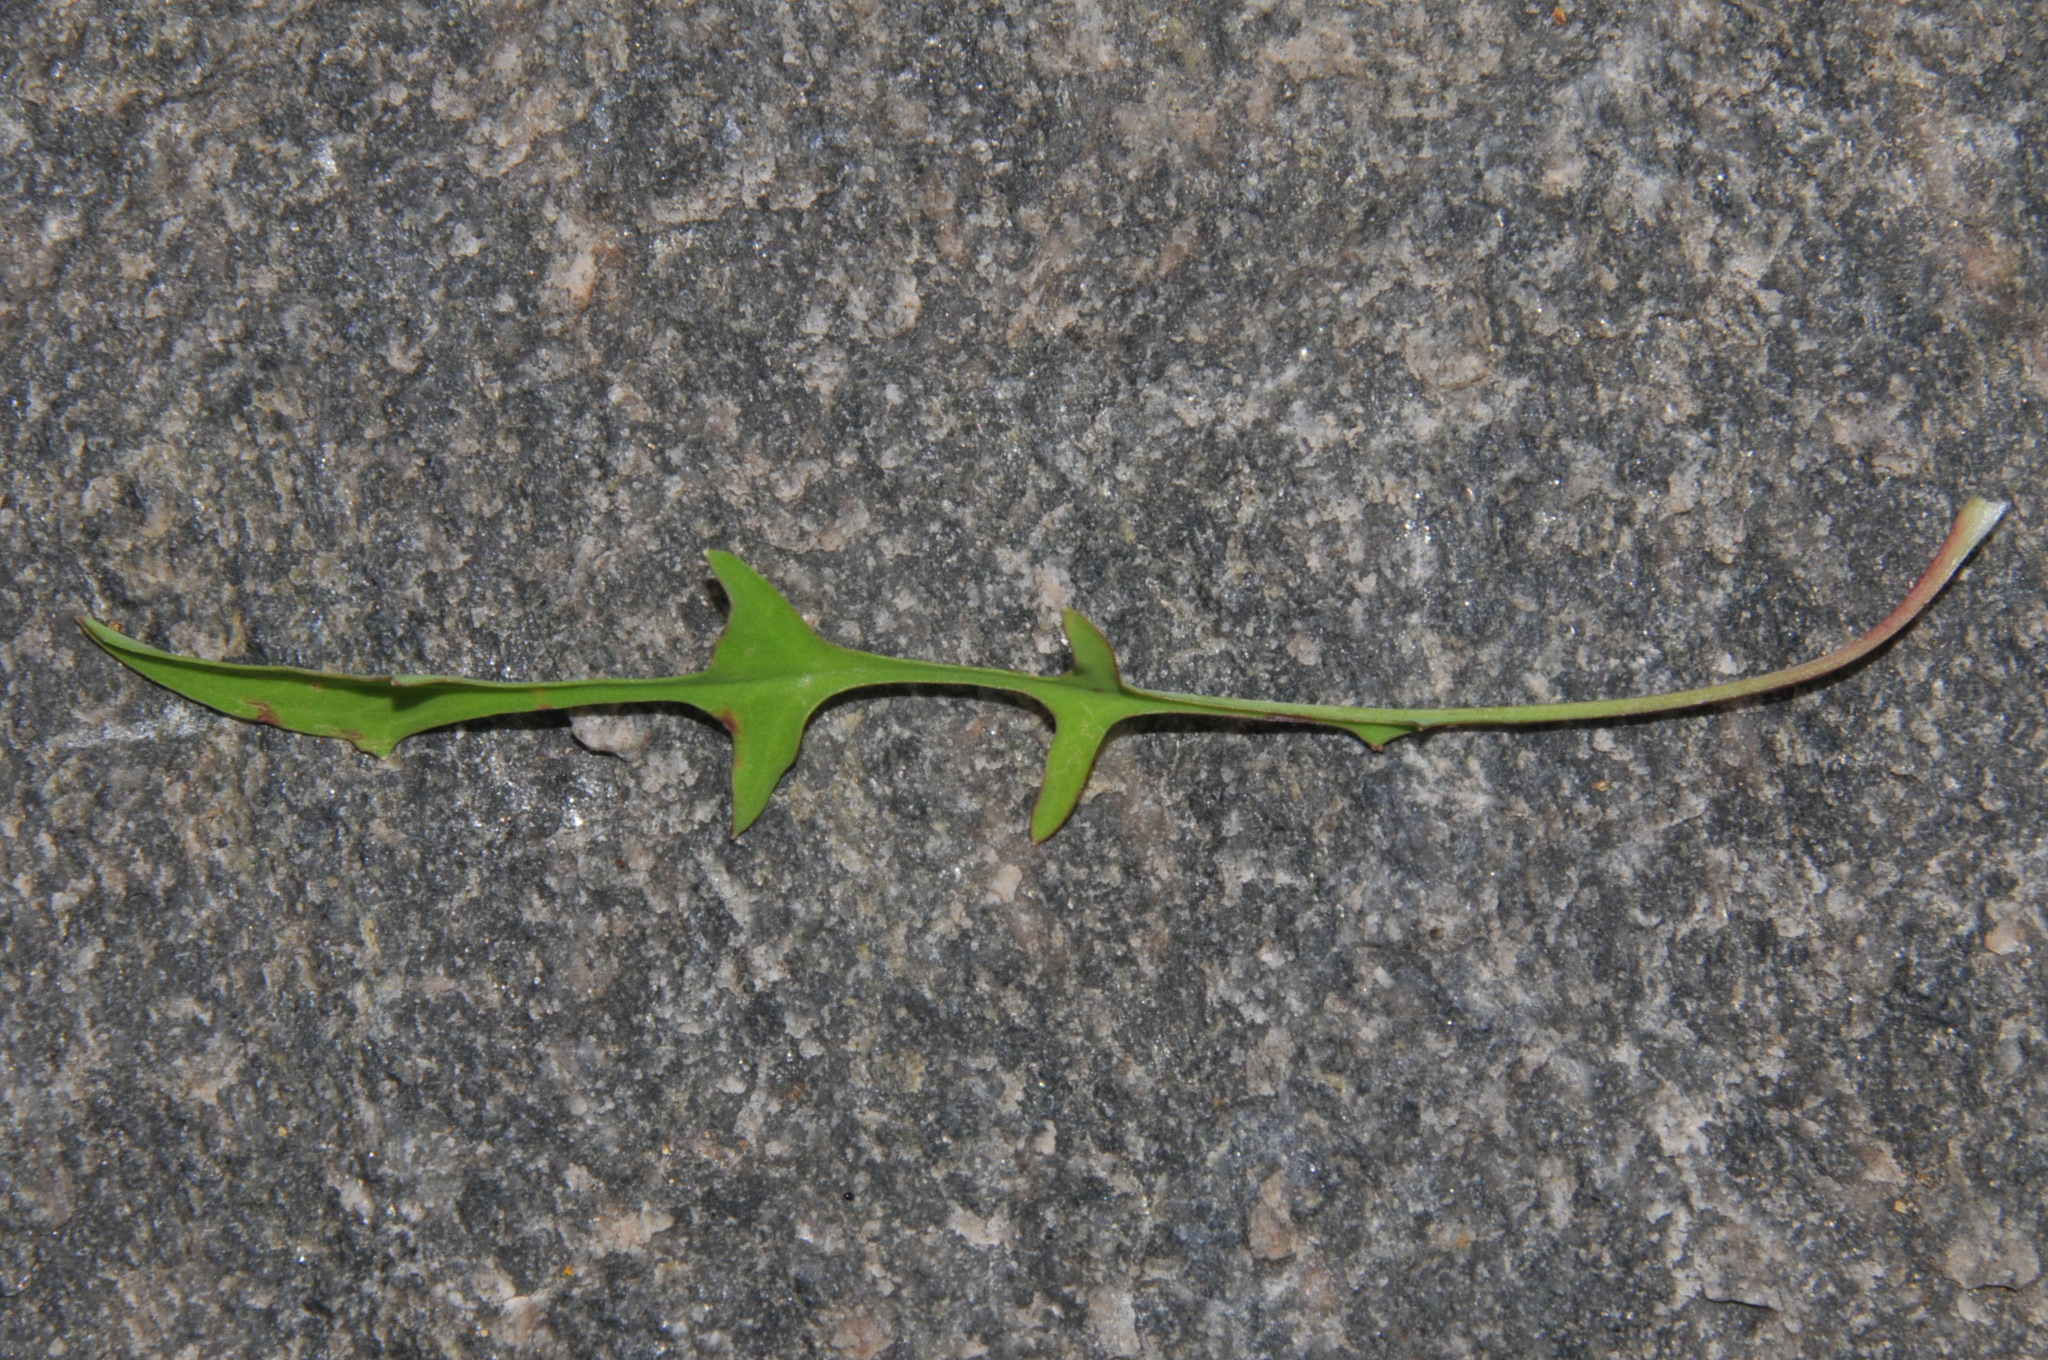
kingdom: Plantae
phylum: Tracheophyta
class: Magnoliopsida
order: Asterales
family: Asteraceae
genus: Krigia
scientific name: Krigia montana
